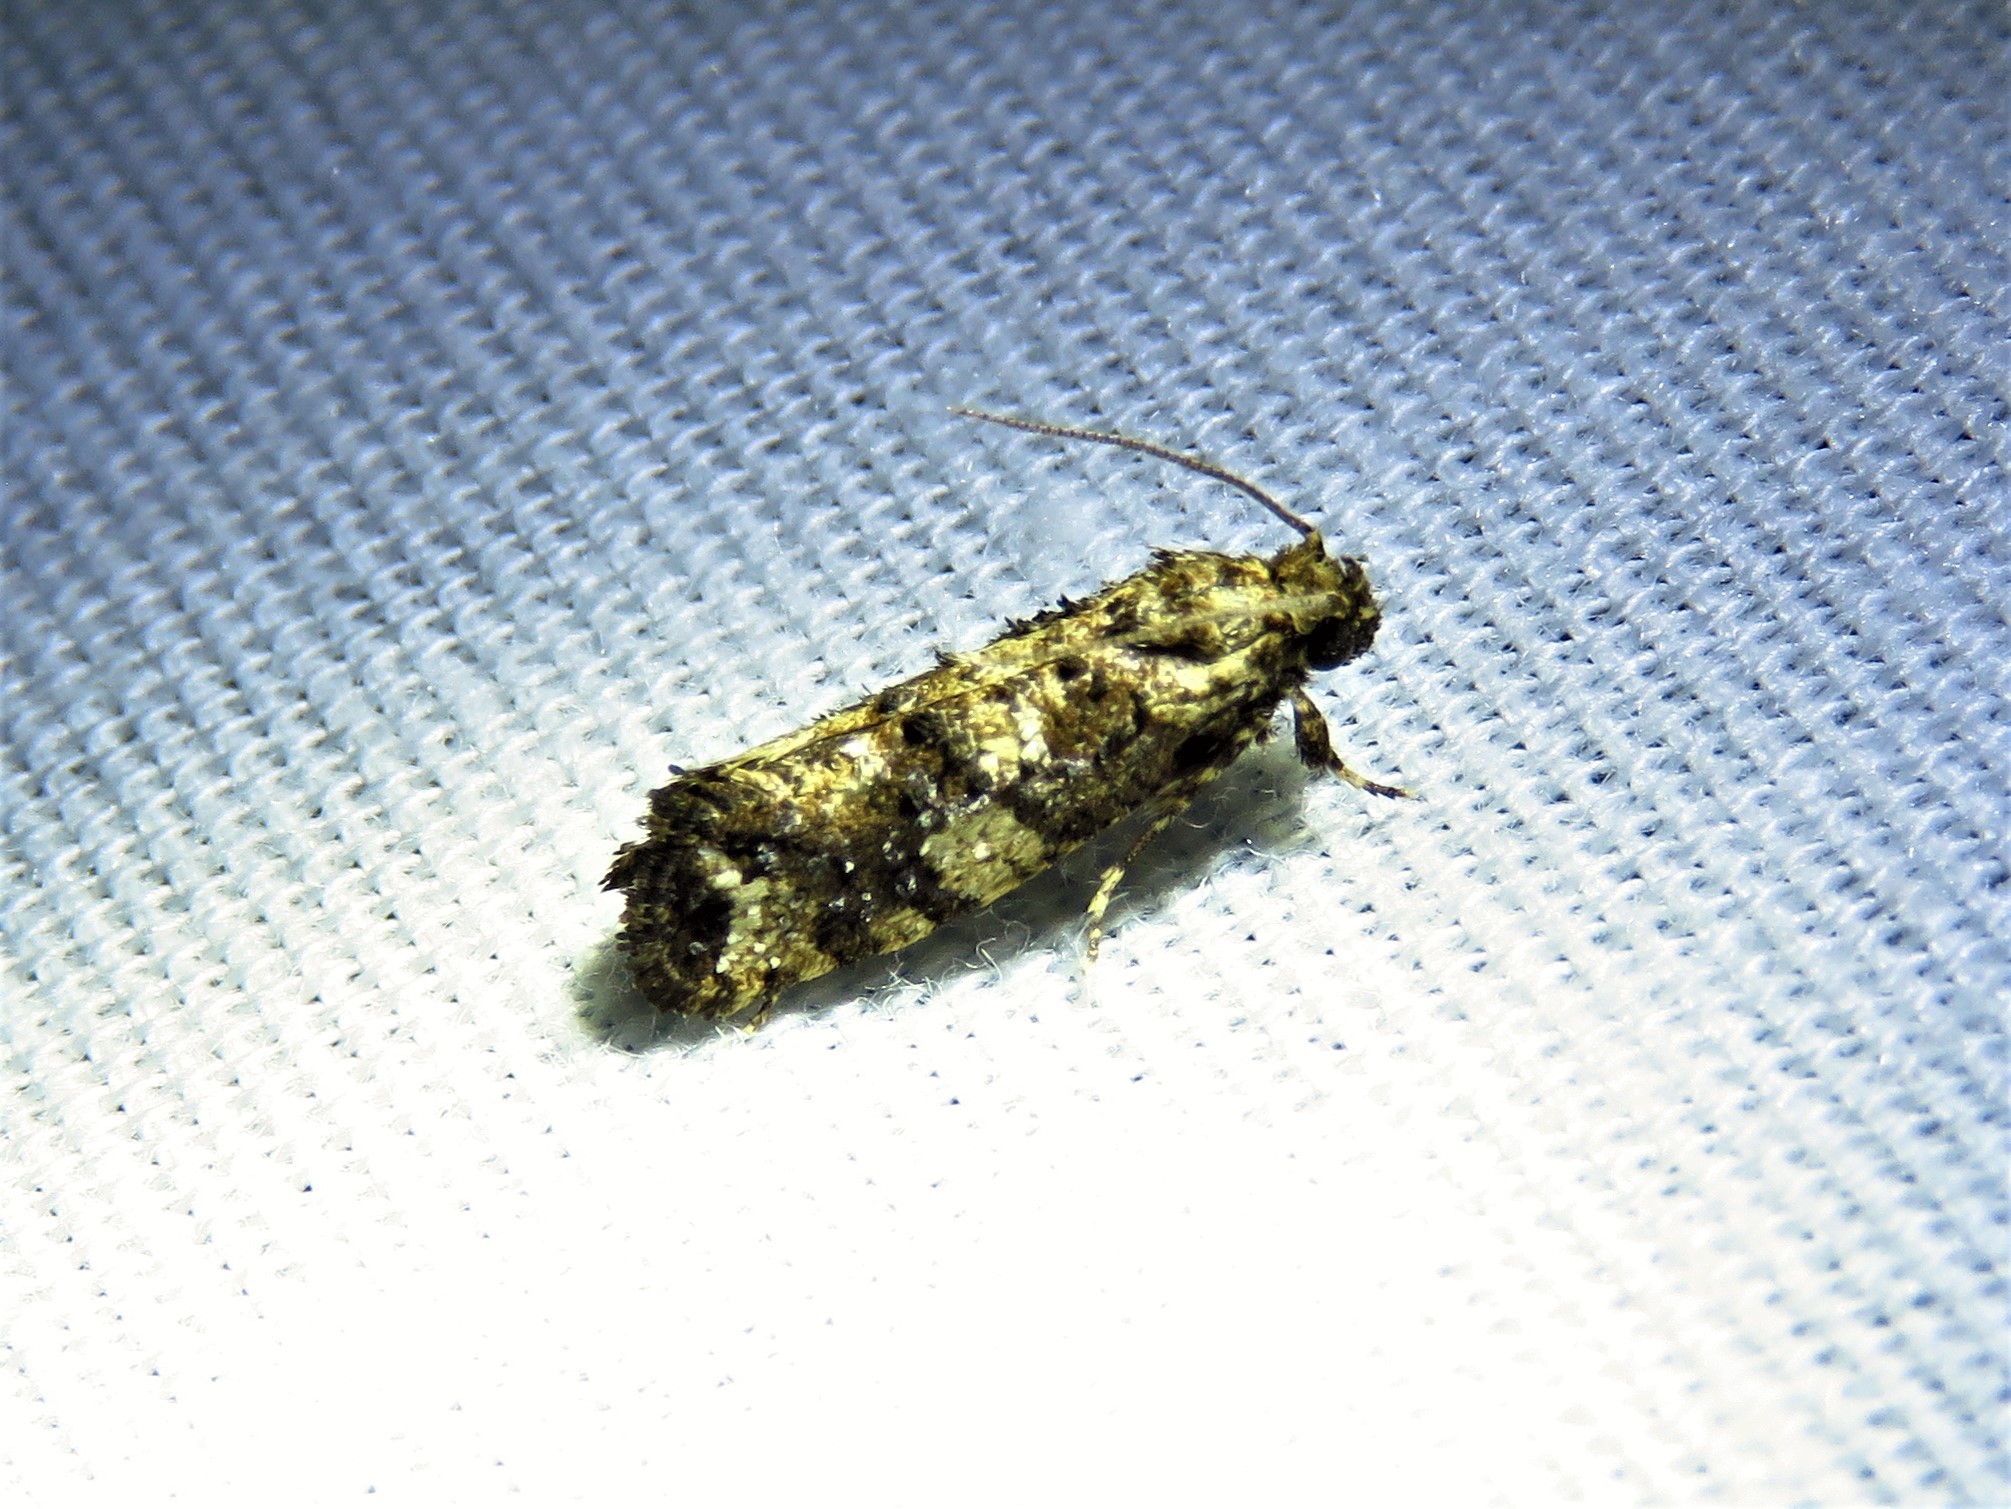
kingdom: Animalia
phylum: Arthropoda
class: Insecta
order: Lepidoptera
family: Tineidae
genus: Acrolophus
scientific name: Acrolophus cressoni
